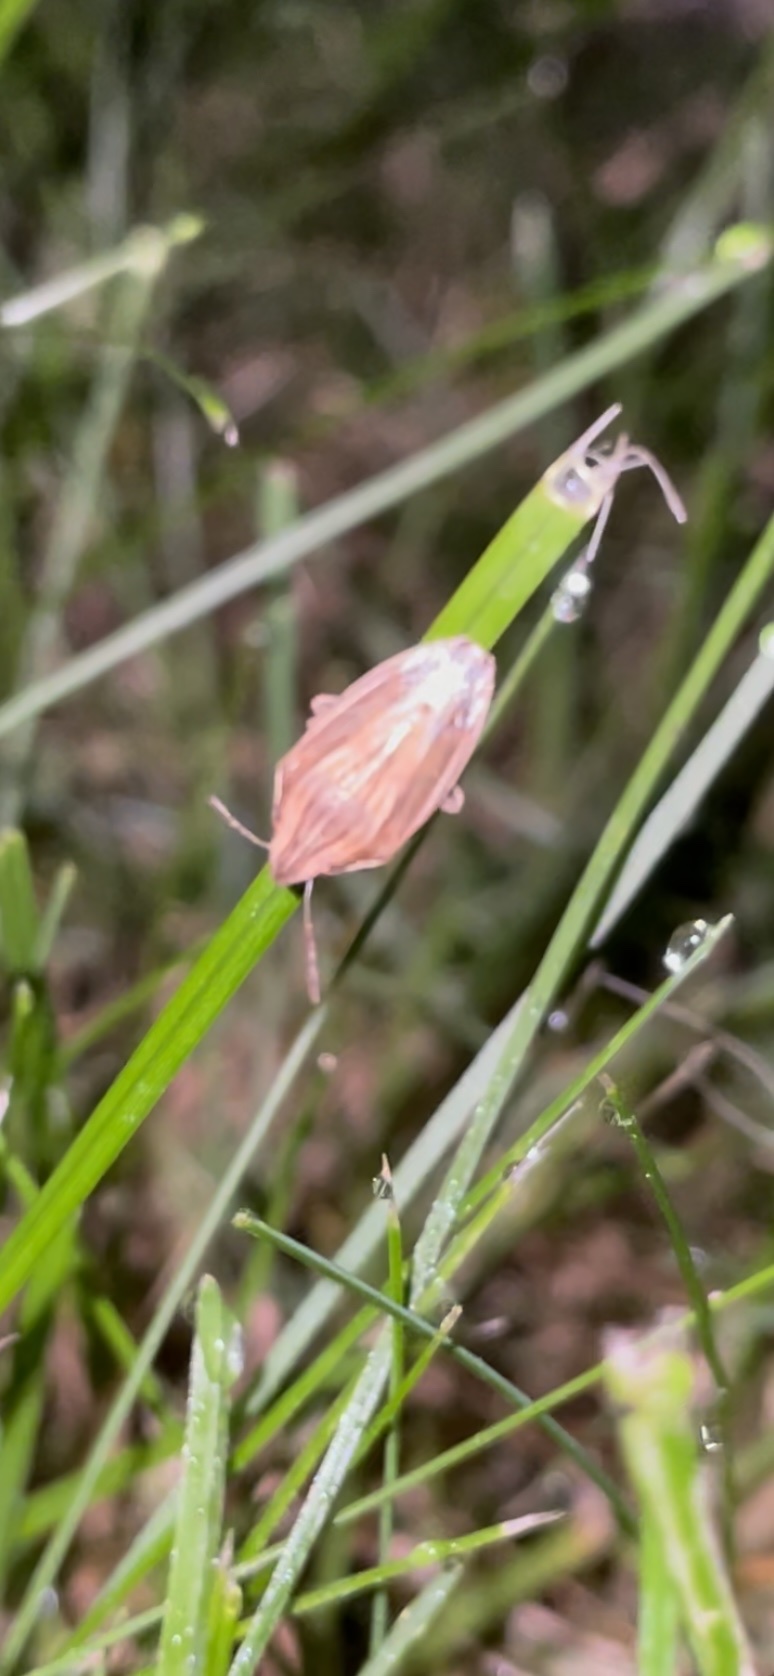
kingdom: Animalia
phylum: Arthropoda
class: Insecta
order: Hemiptera
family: Pentatomidae
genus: Aelia
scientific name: Aelia acuminata
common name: Bishop's mitre
